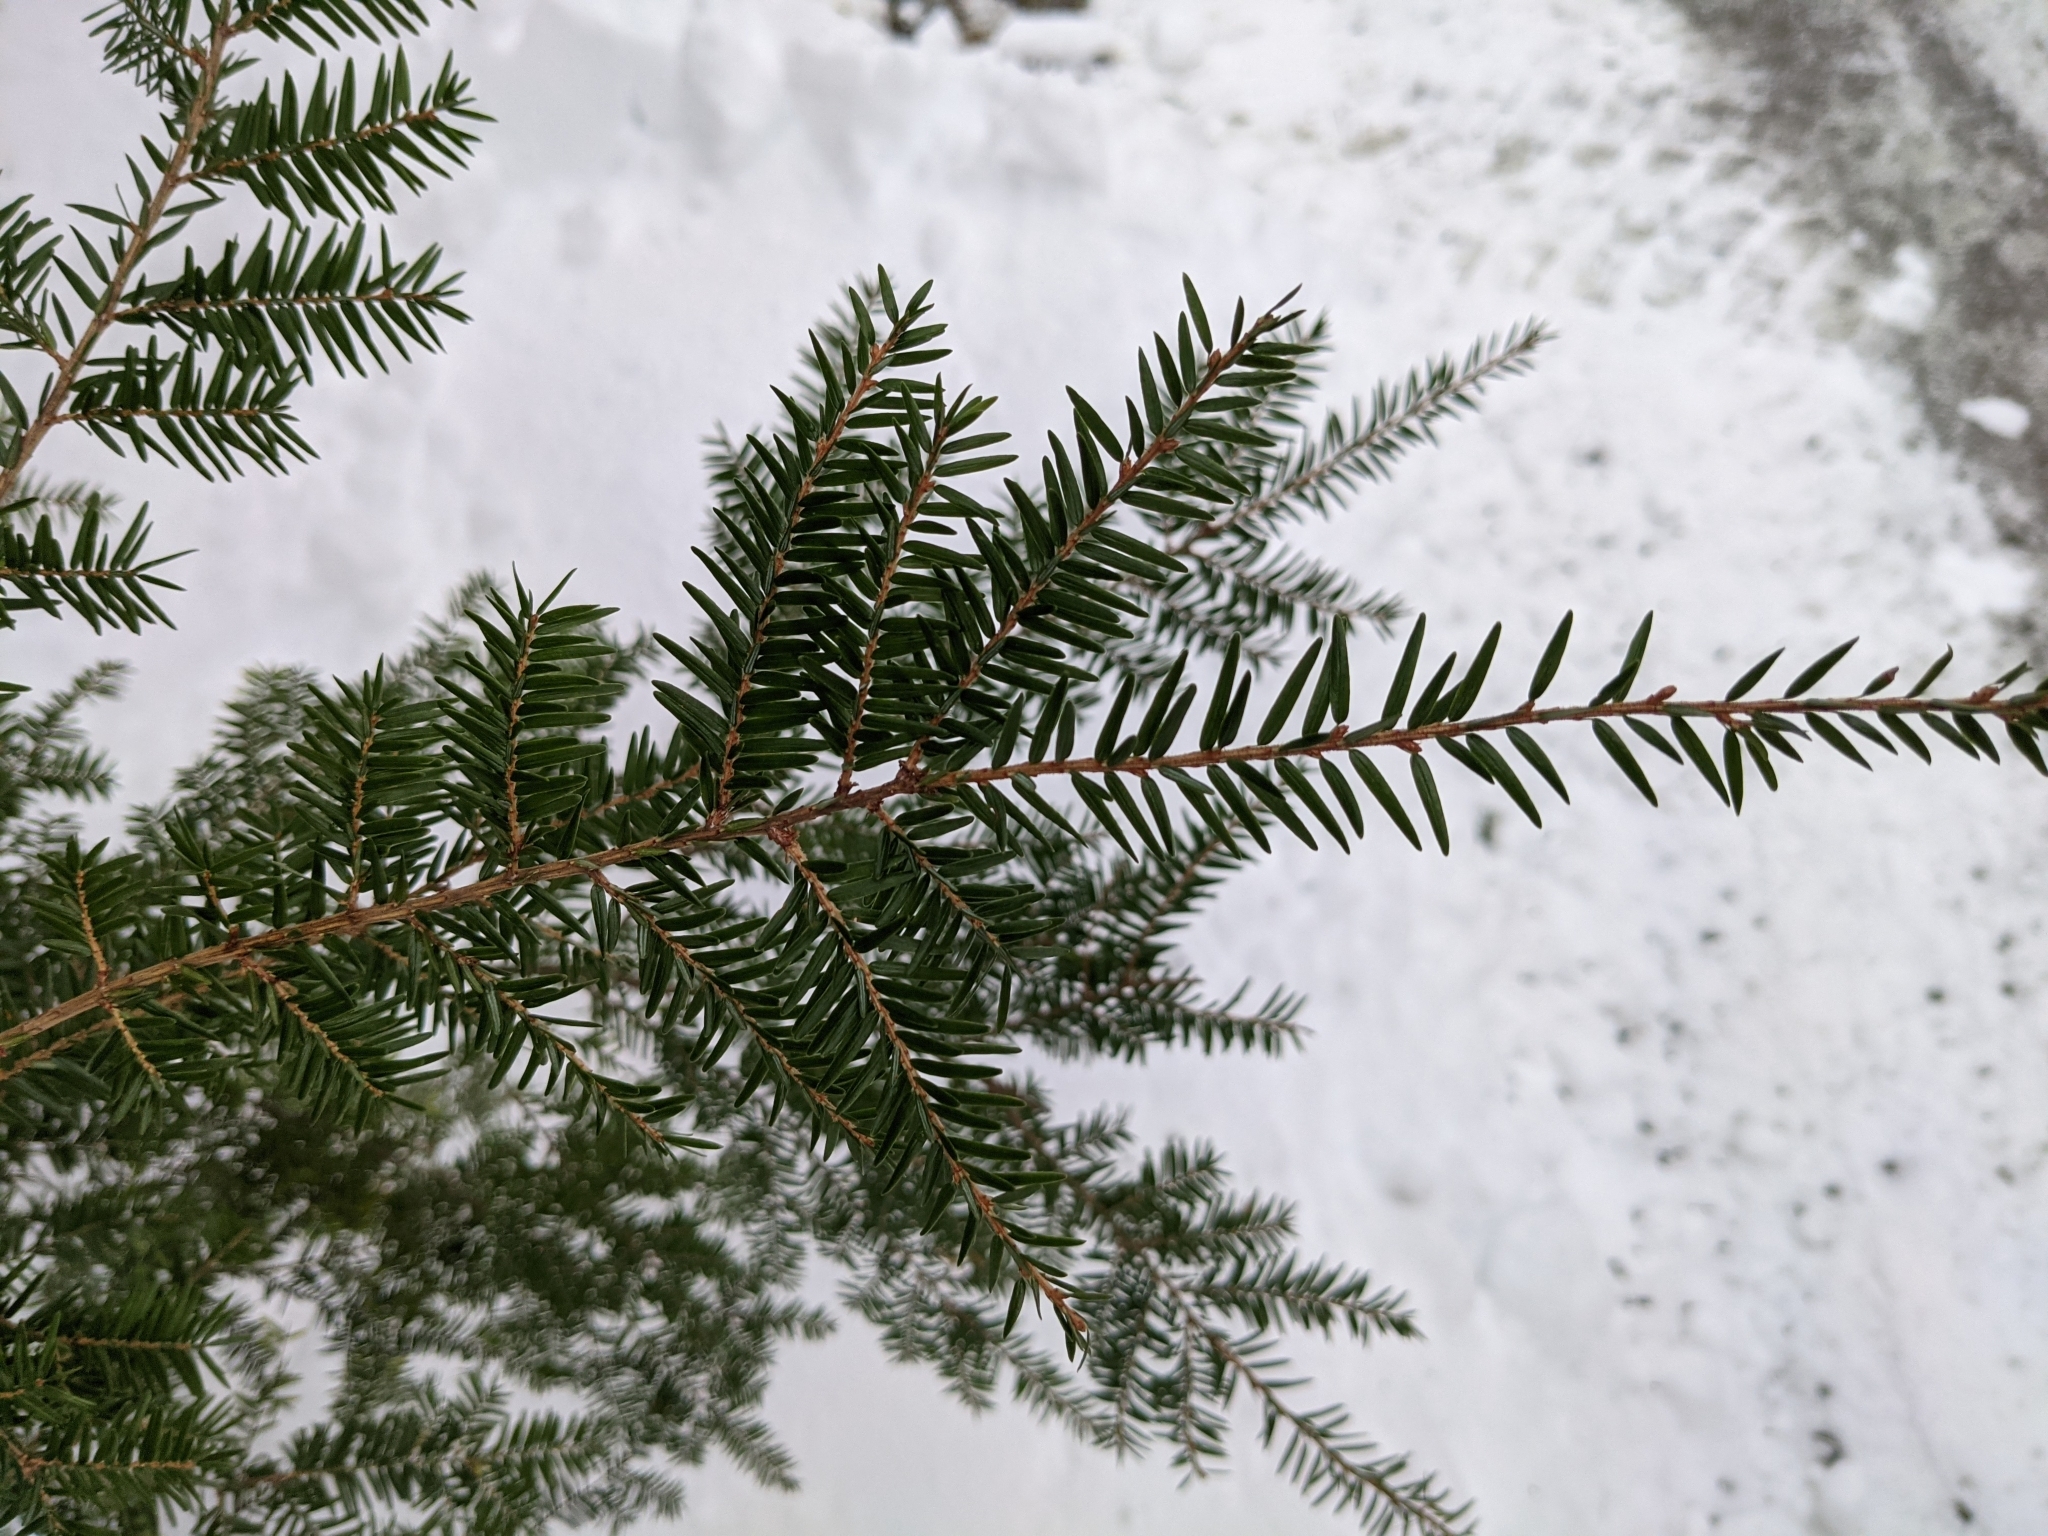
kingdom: Plantae
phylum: Tracheophyta
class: Pinopsida
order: Pinales
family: Pinaceae
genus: Tsuga
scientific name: Tsuga canadensis
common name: Eastern hemlock
